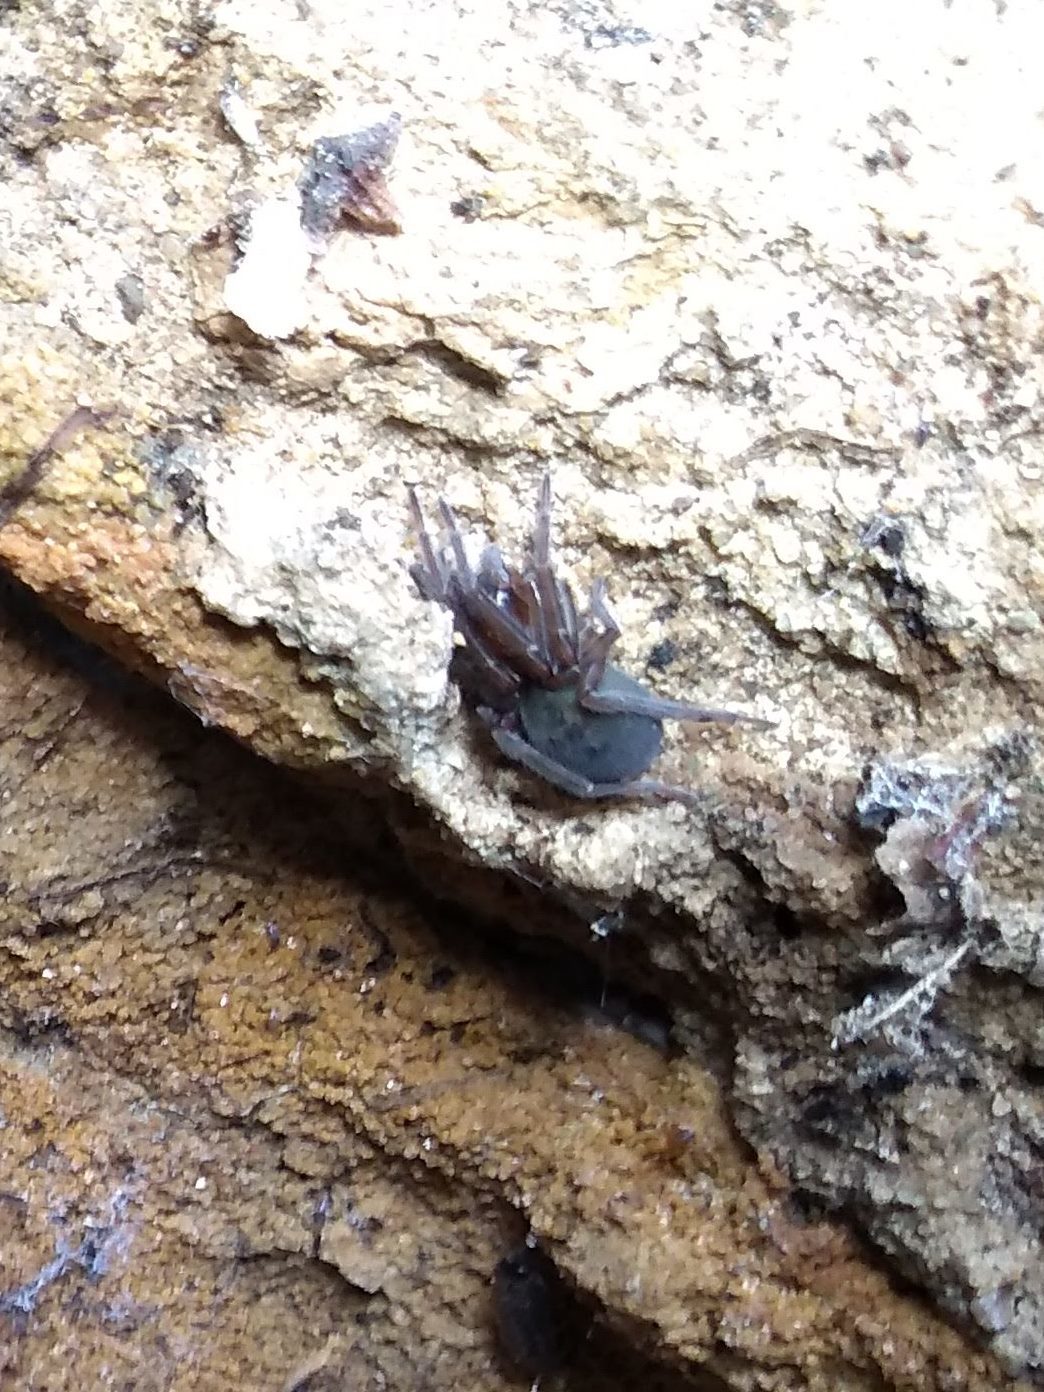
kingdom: Animalia
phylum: Arthropoda
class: Arachnida
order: Araneae
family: Amaurobiidae
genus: Amaurobius
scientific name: Amaurobius ferox
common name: Black laceweaver
